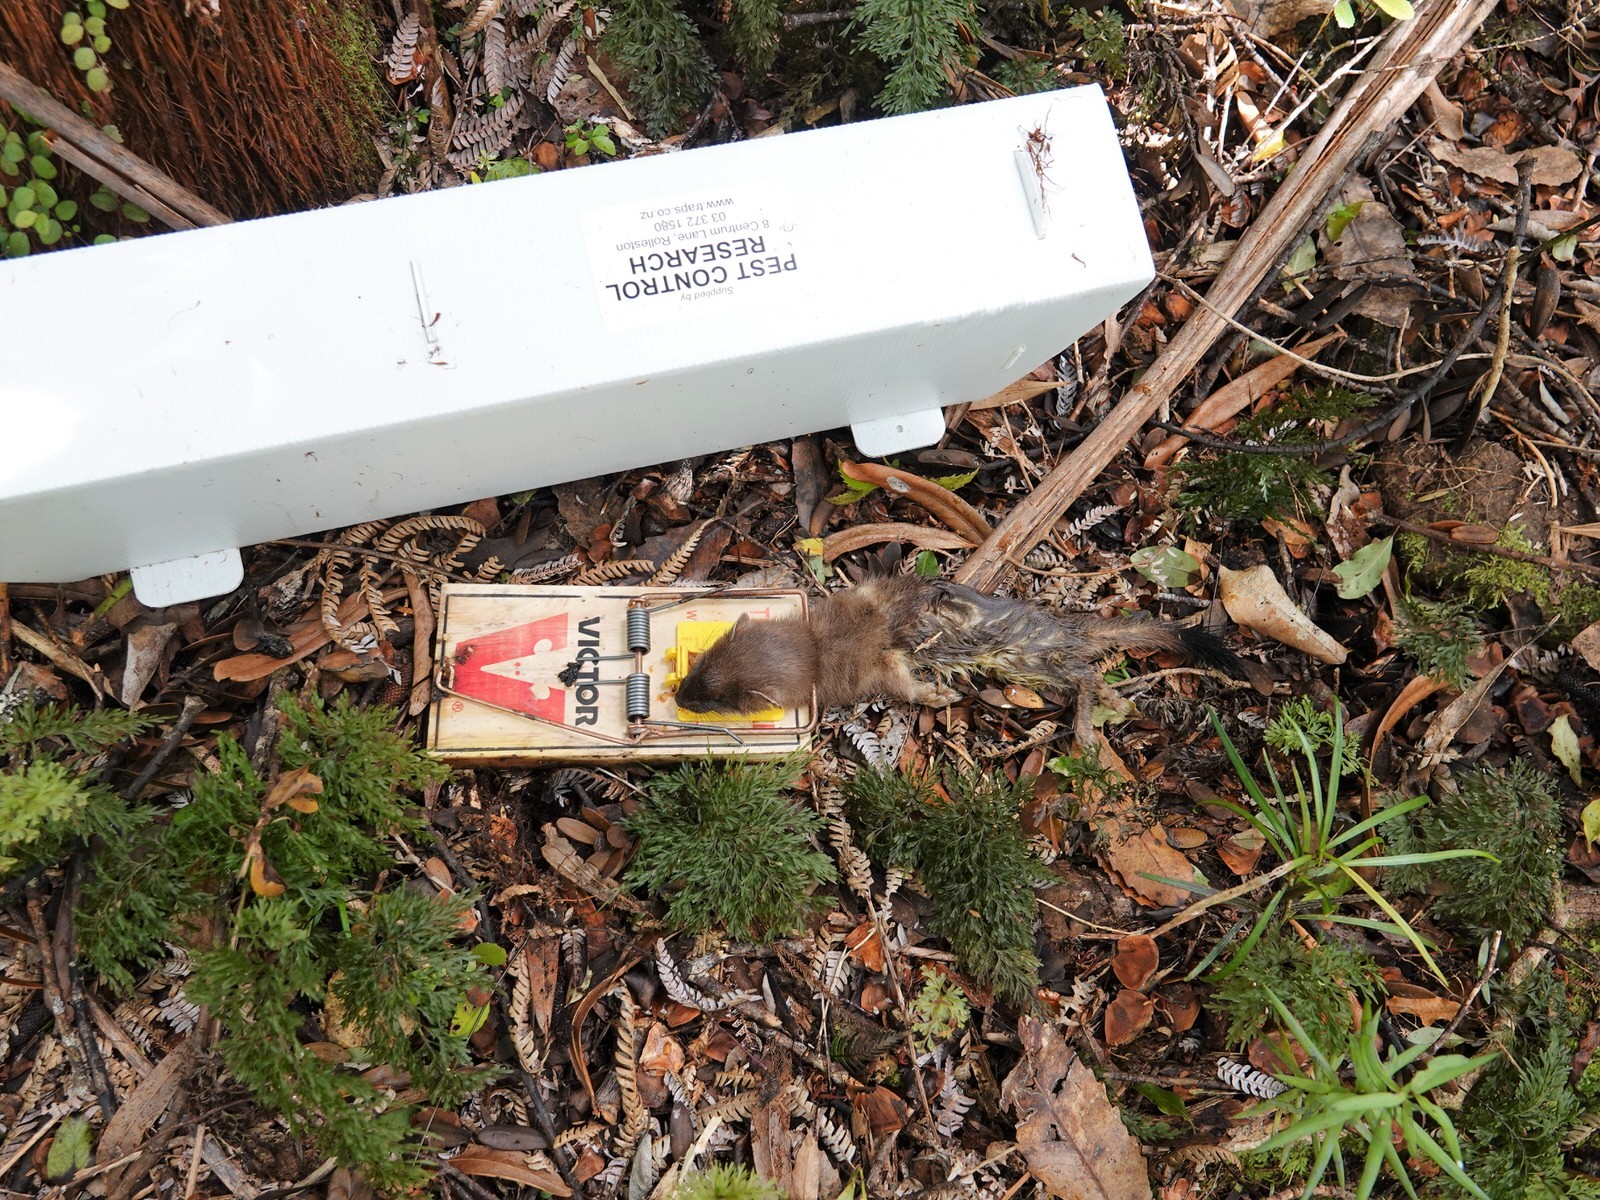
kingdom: Animalia
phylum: Chordata
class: Mammalia
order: Carnivora
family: Mustelidae
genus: Mustela
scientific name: Mustela erminea
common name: Stoat
